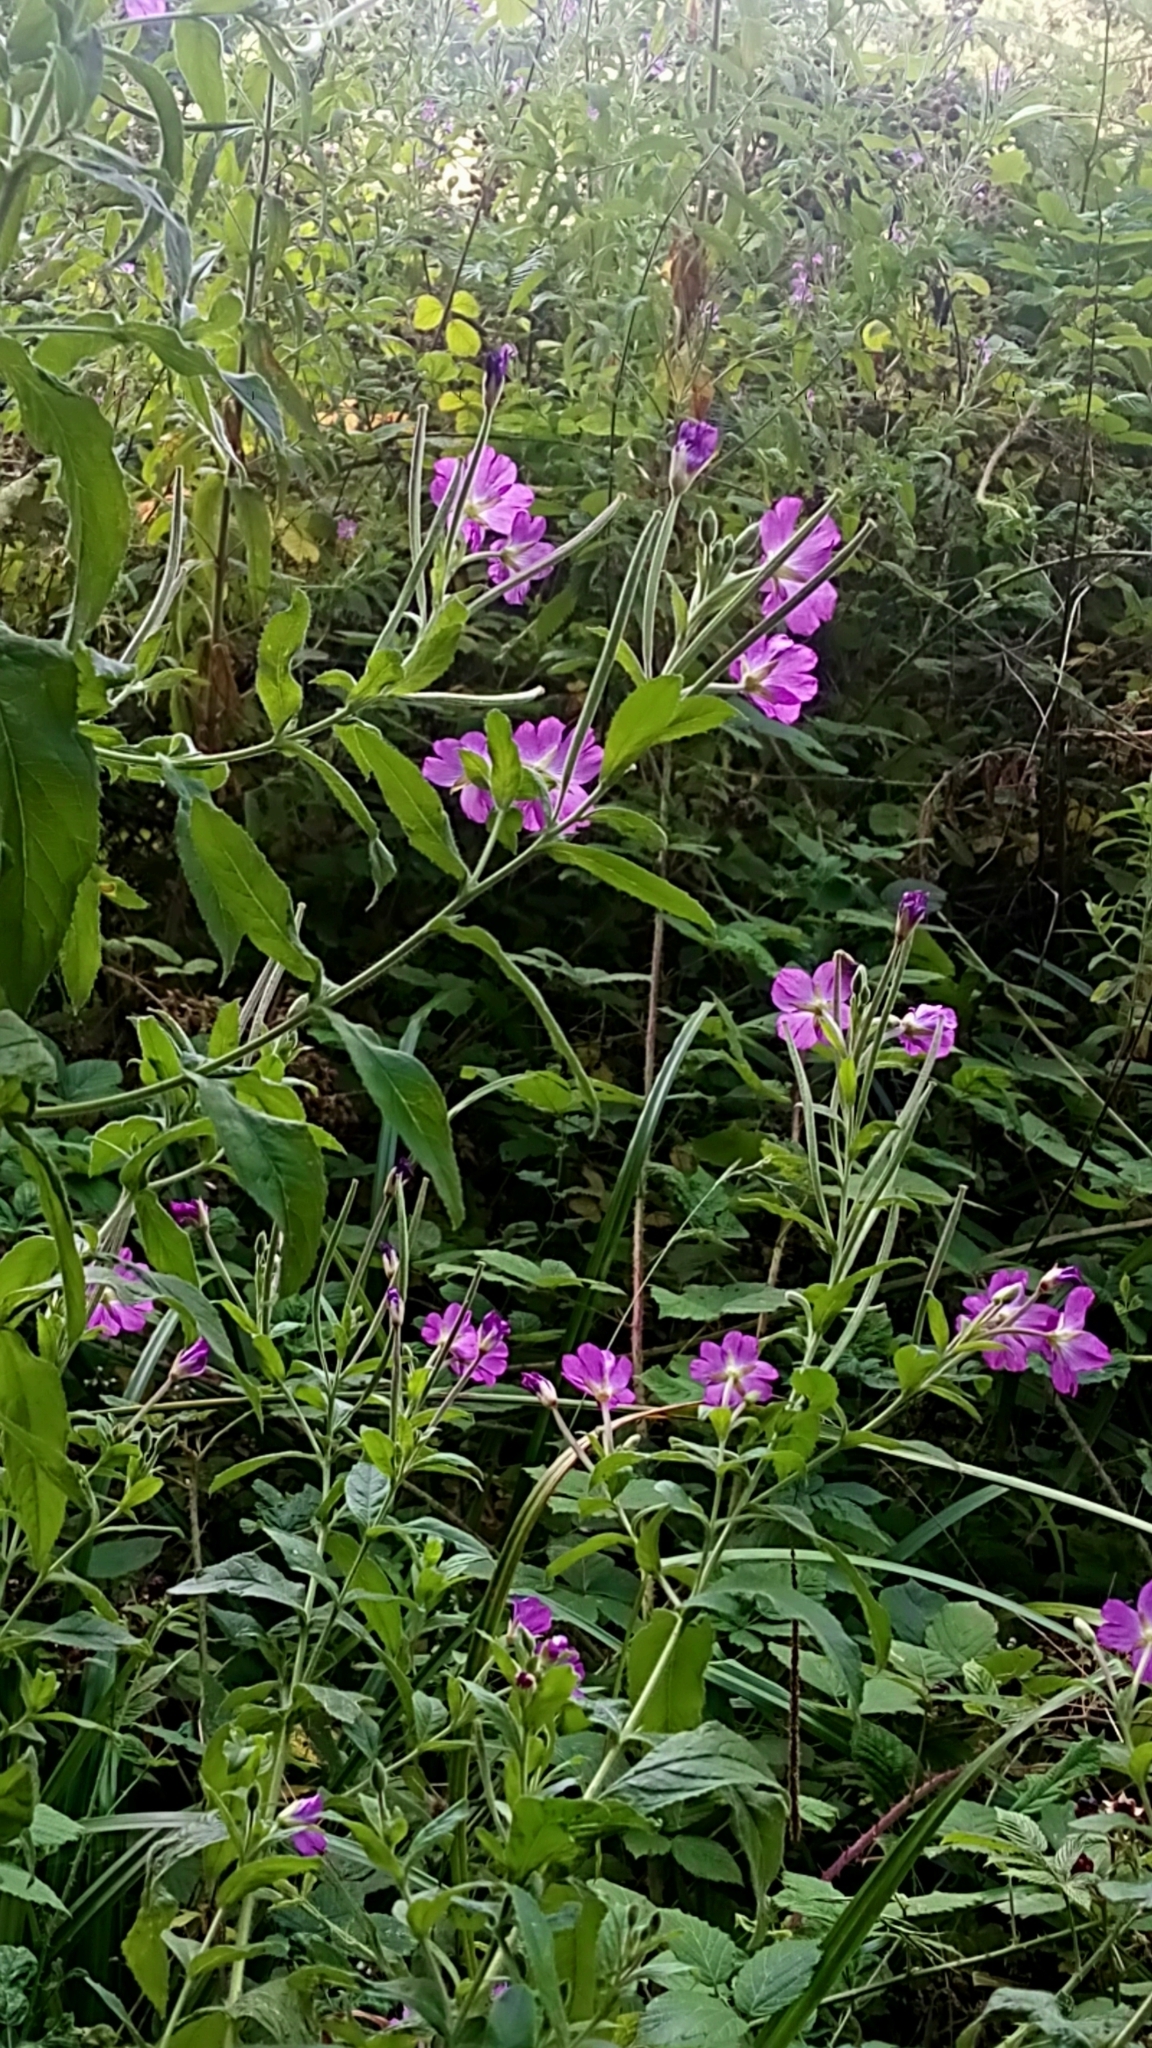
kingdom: Plantae
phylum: Tracheophyta
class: Magnoliopsida
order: Myrtales
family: Onagraceae
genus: Epilobium
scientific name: Epilobium hirsutum
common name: Great willowherb
